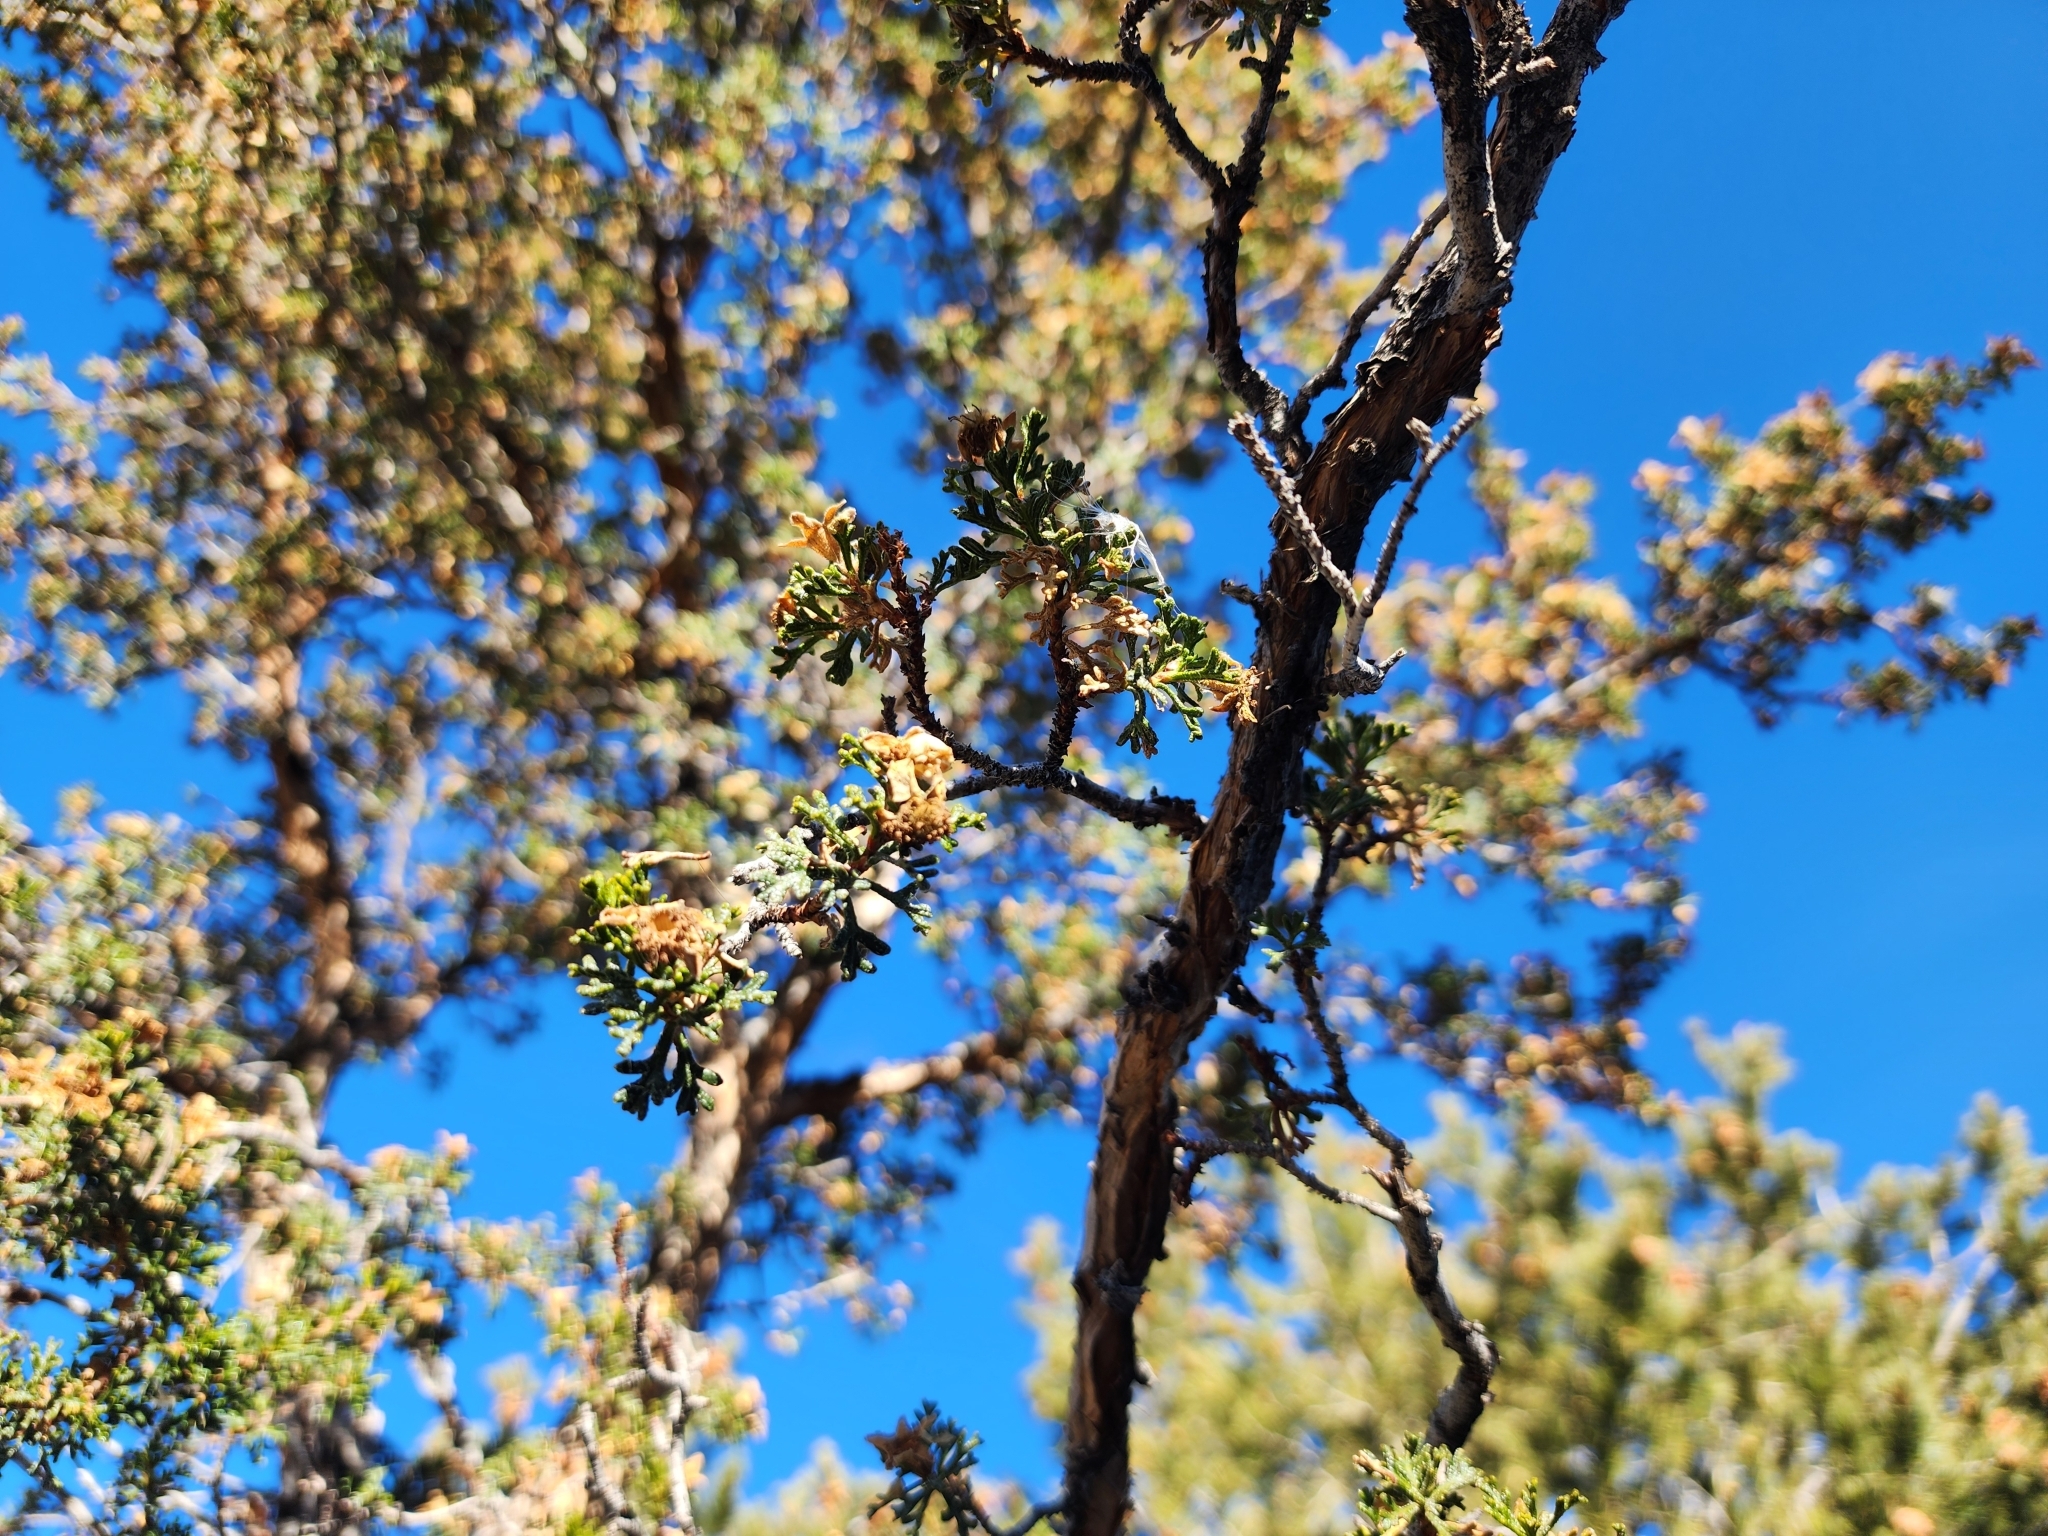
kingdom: Plantae
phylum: Tracheophyta
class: Magnoliopsida
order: Rosales
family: Rosaceae
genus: Purshia
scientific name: Purshia stansburiana
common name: Stansbury's cliffrose
